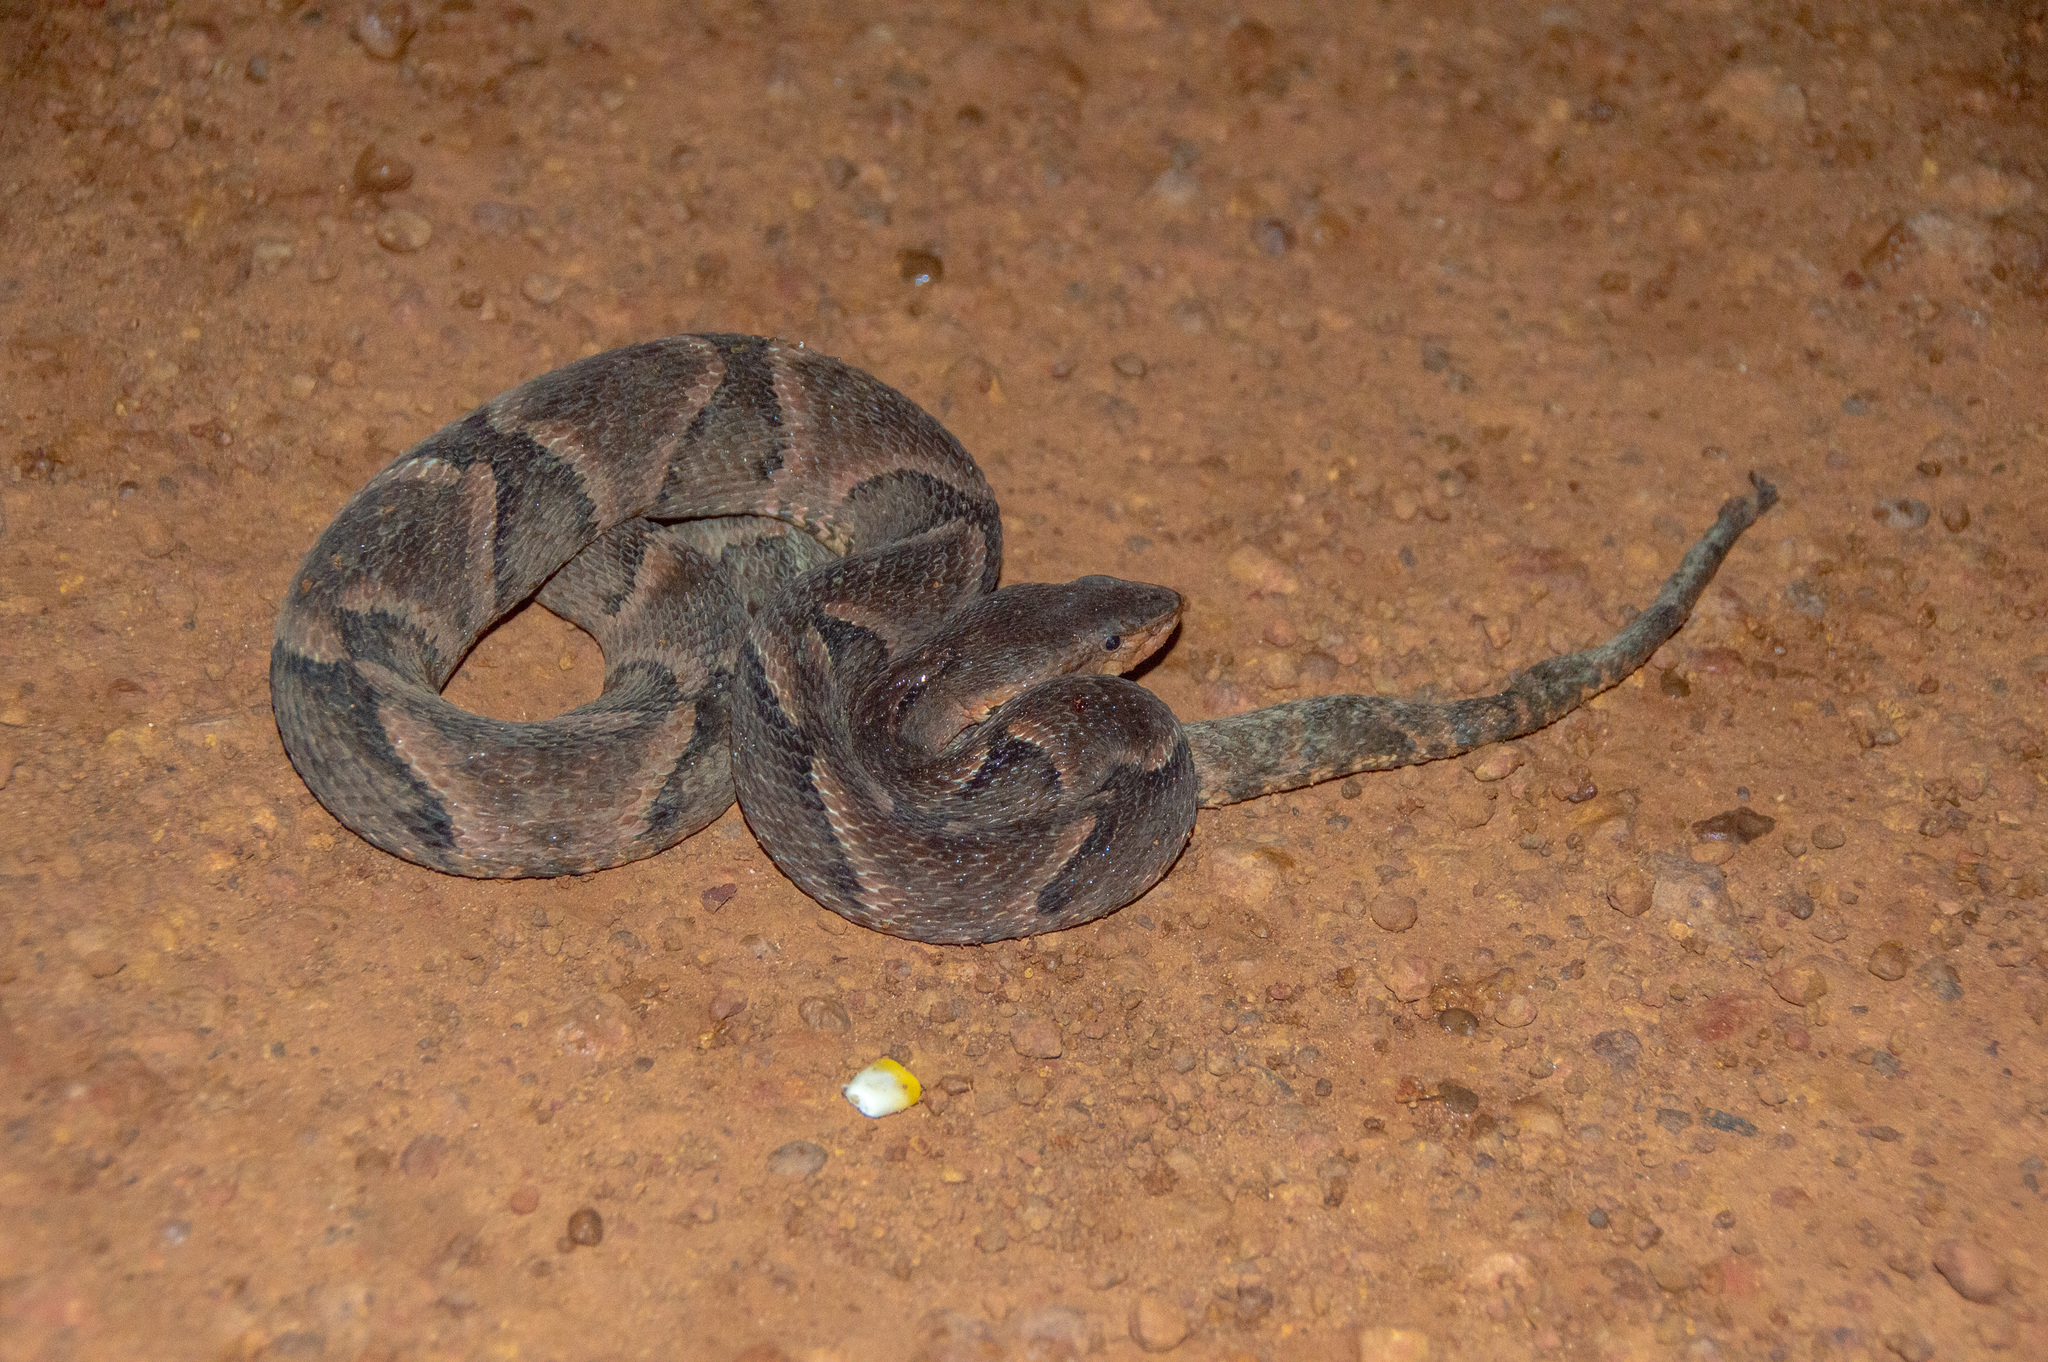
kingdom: Animalia
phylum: Chordata
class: Squamata
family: Viperidae
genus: Bothrops
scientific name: Bothrops moojeni
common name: Brazilian lancehead
